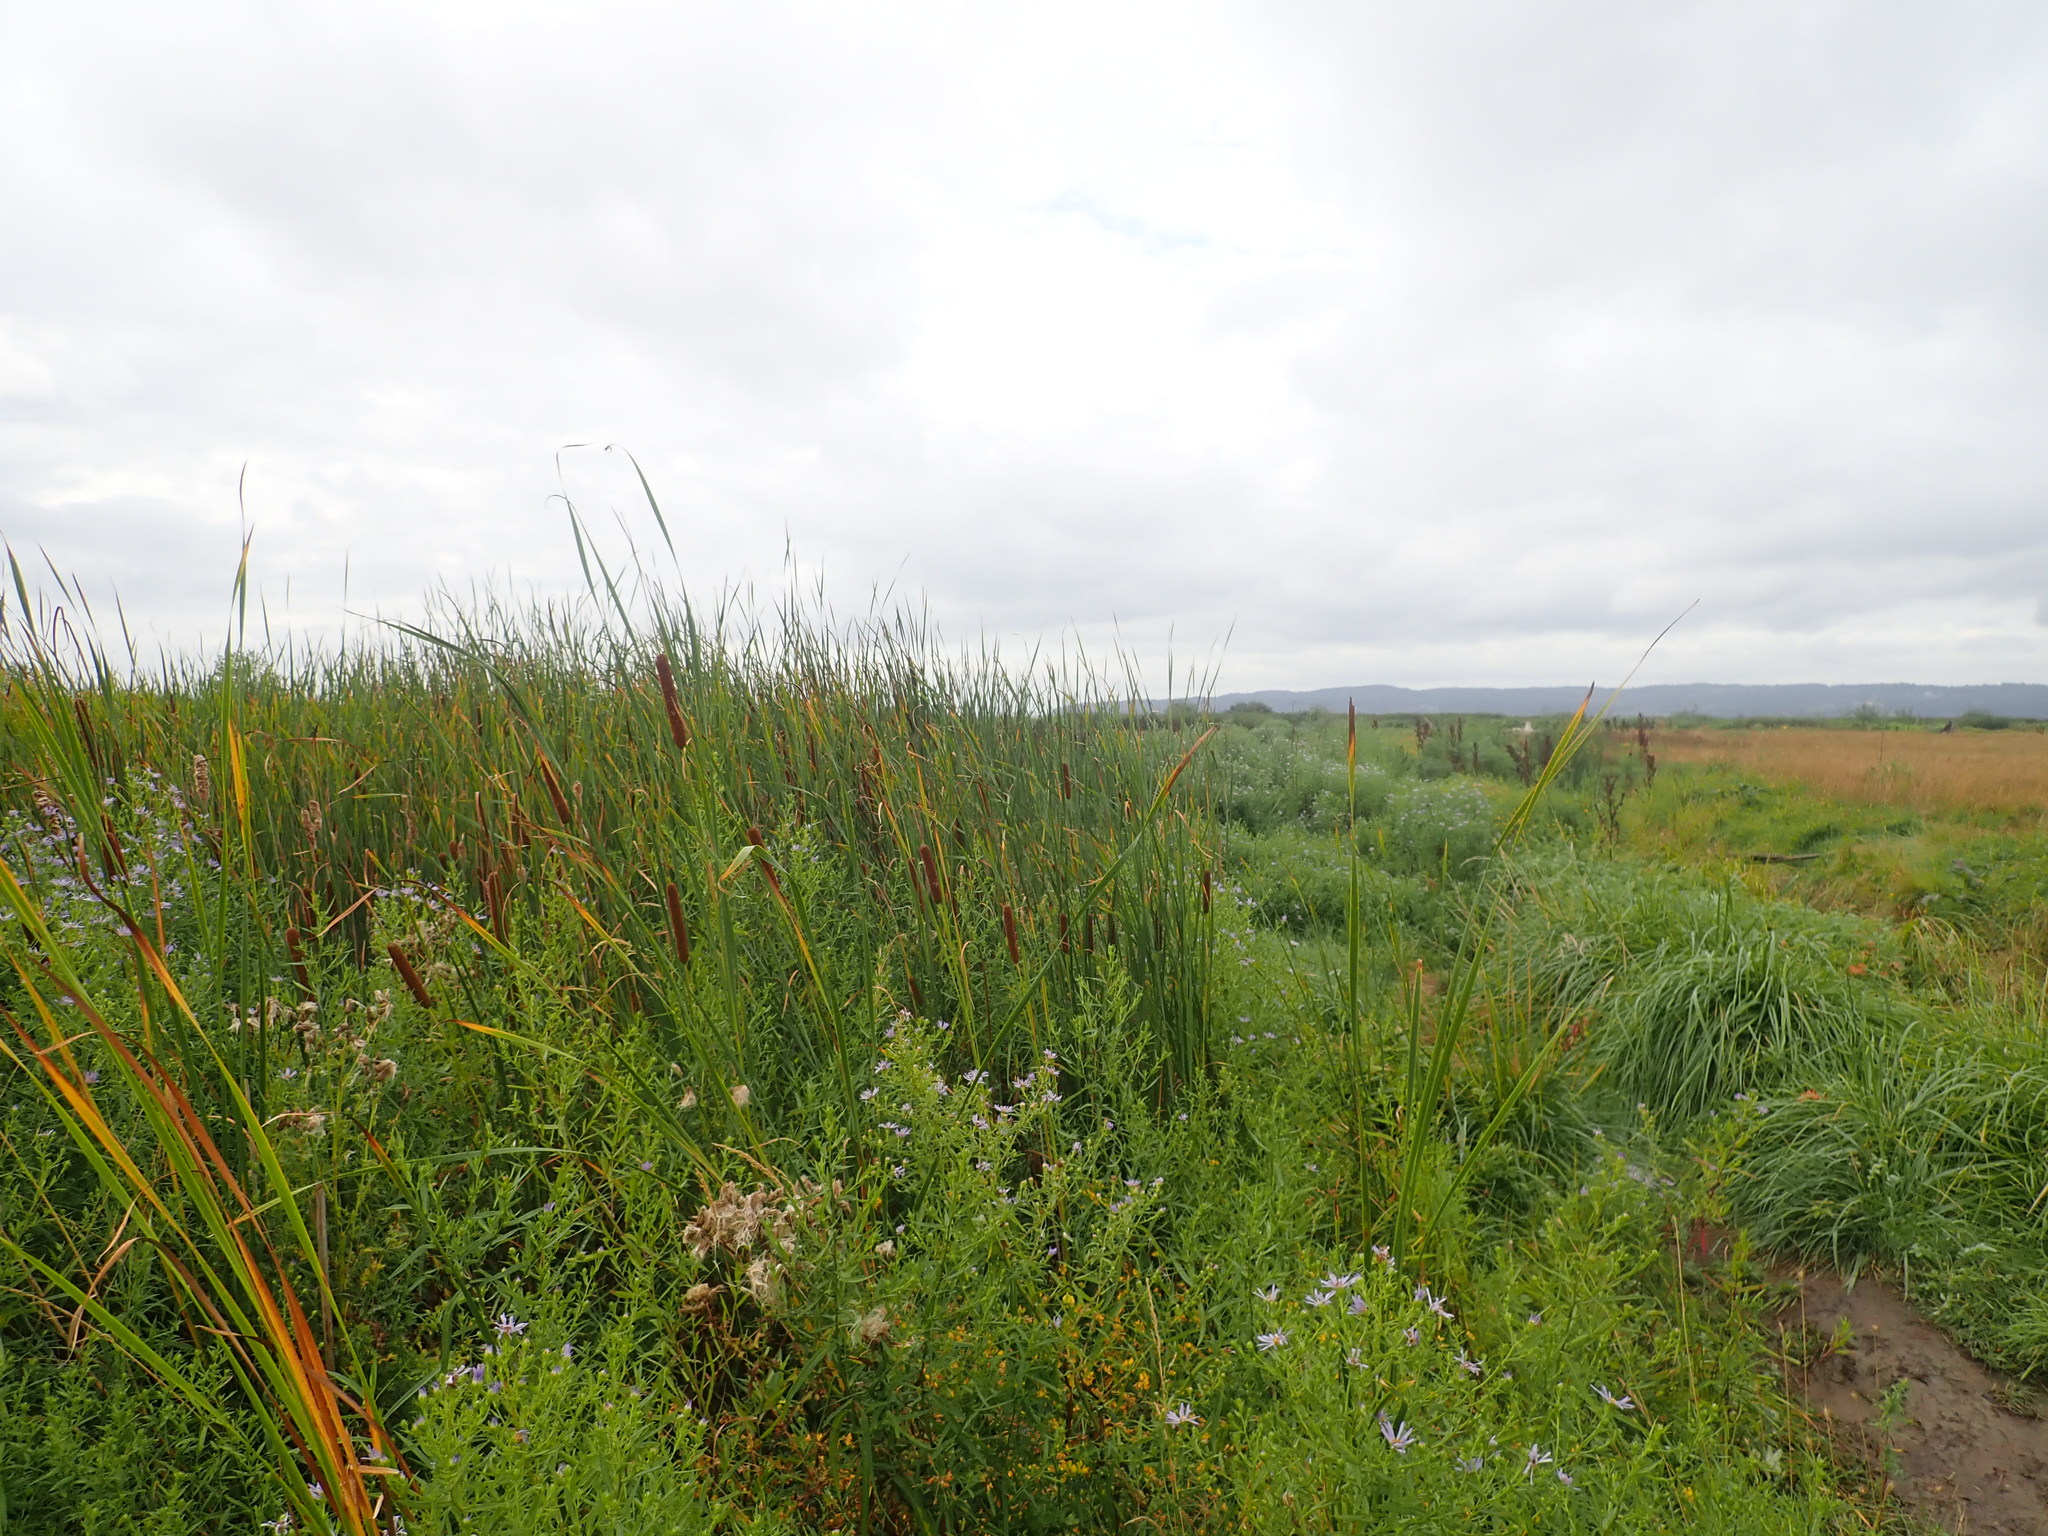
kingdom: Plantae
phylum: Tracheophyta
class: Liliopsida
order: Poales
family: Typhaceae
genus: Typha
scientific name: Typha angustifolia
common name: Lesser bulrush
